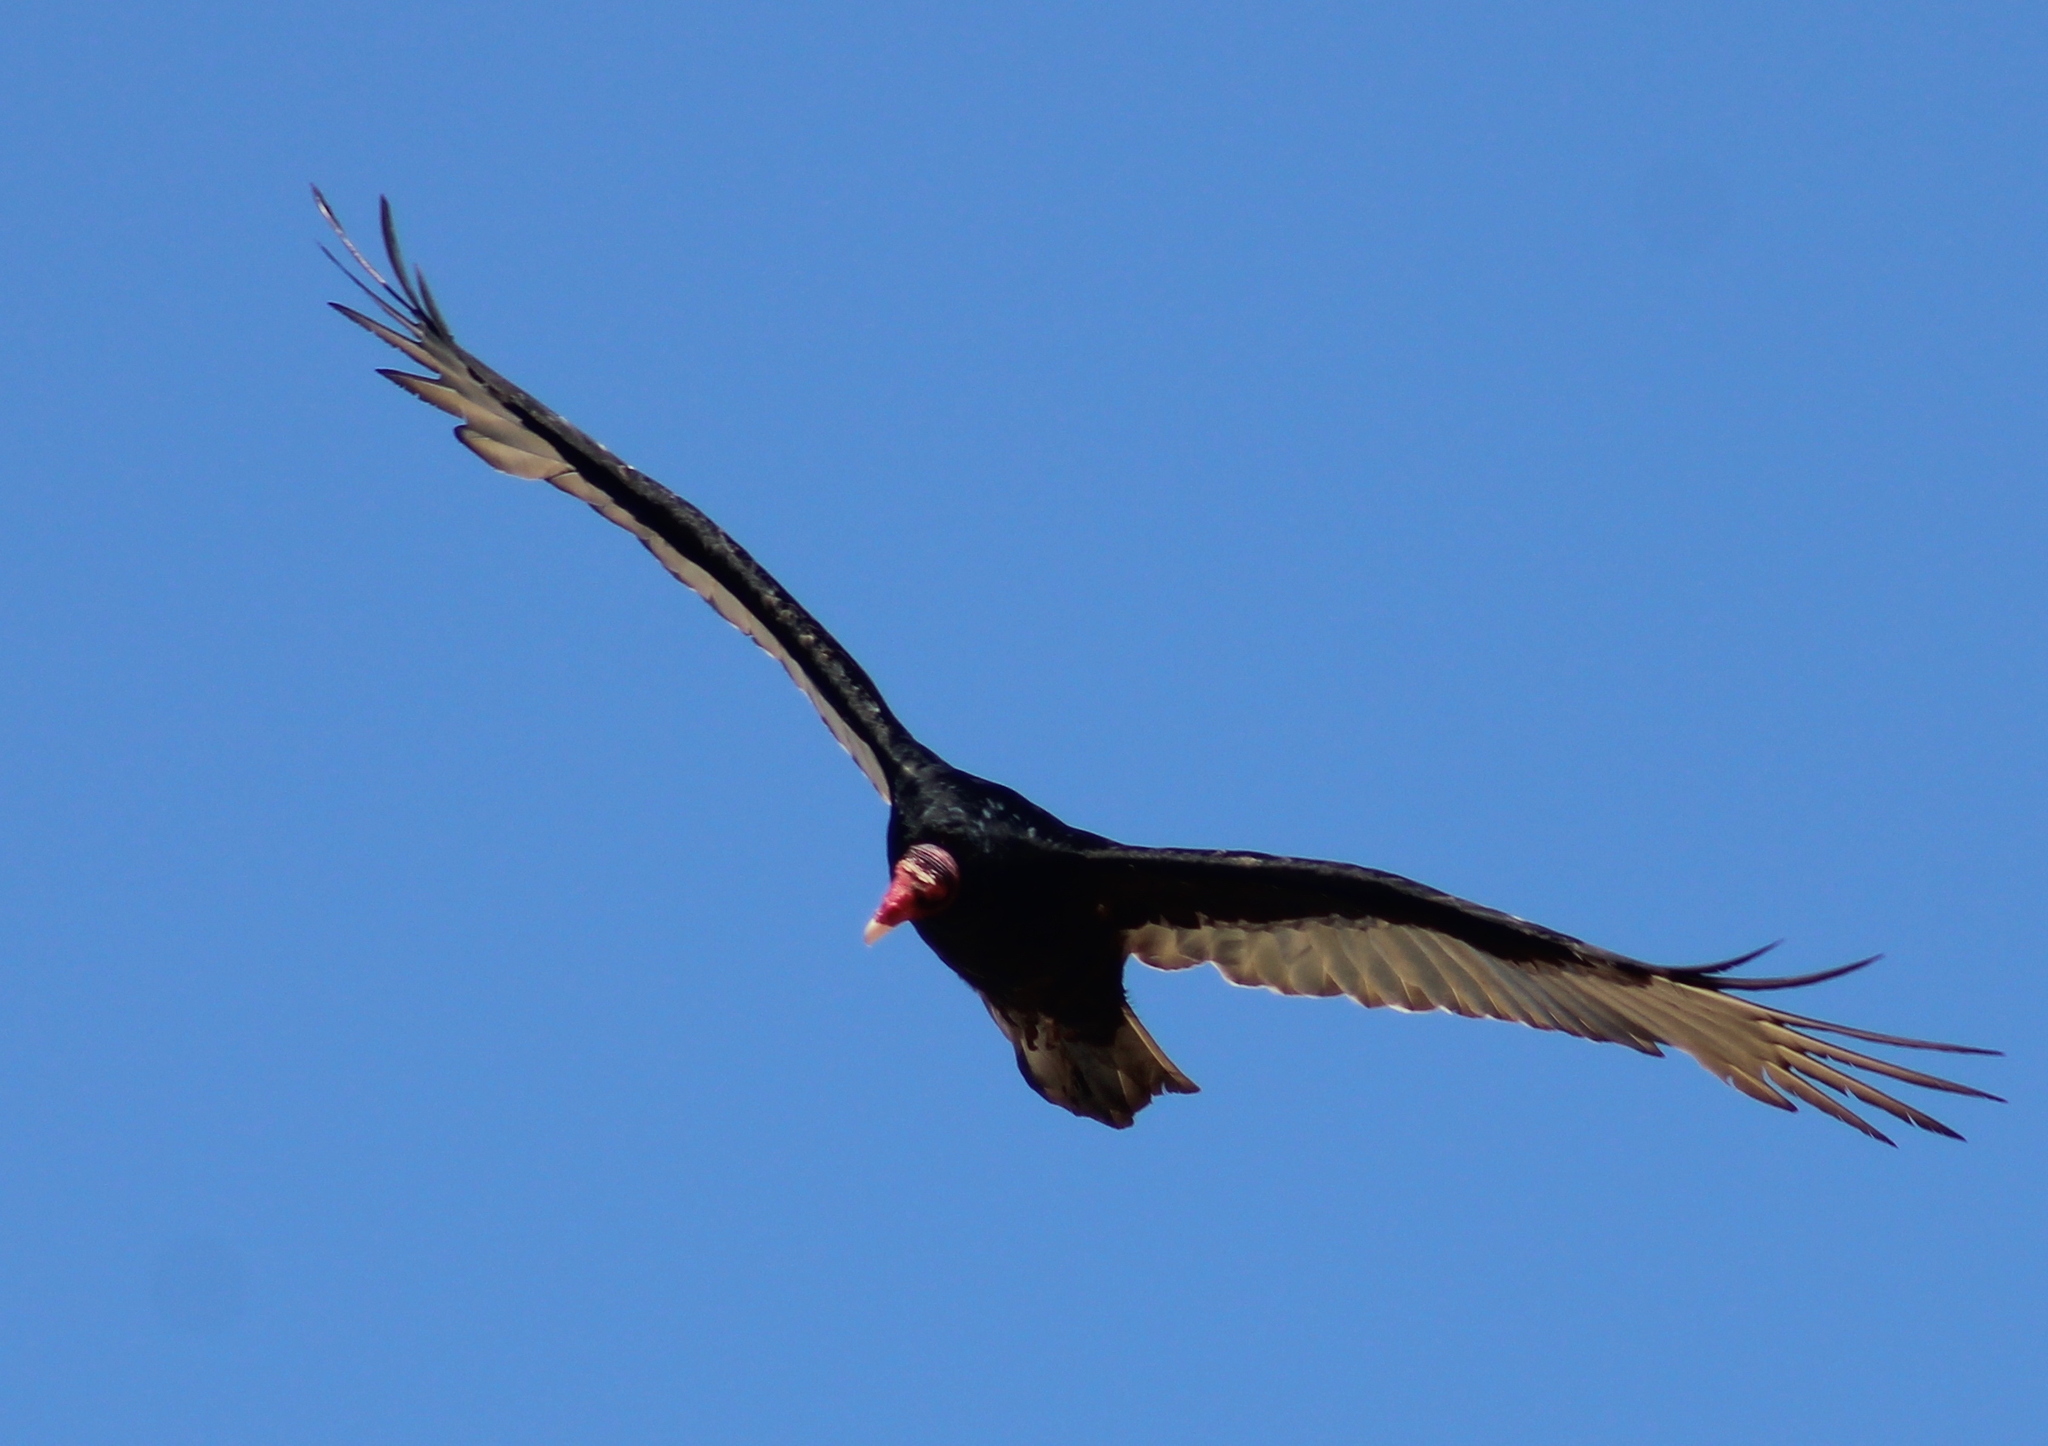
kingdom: Animalia
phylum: Chordata
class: Aves
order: Accipitriformes
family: Cathartidae
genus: Cathartes
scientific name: Cathartes aura
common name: Turkey vulture
